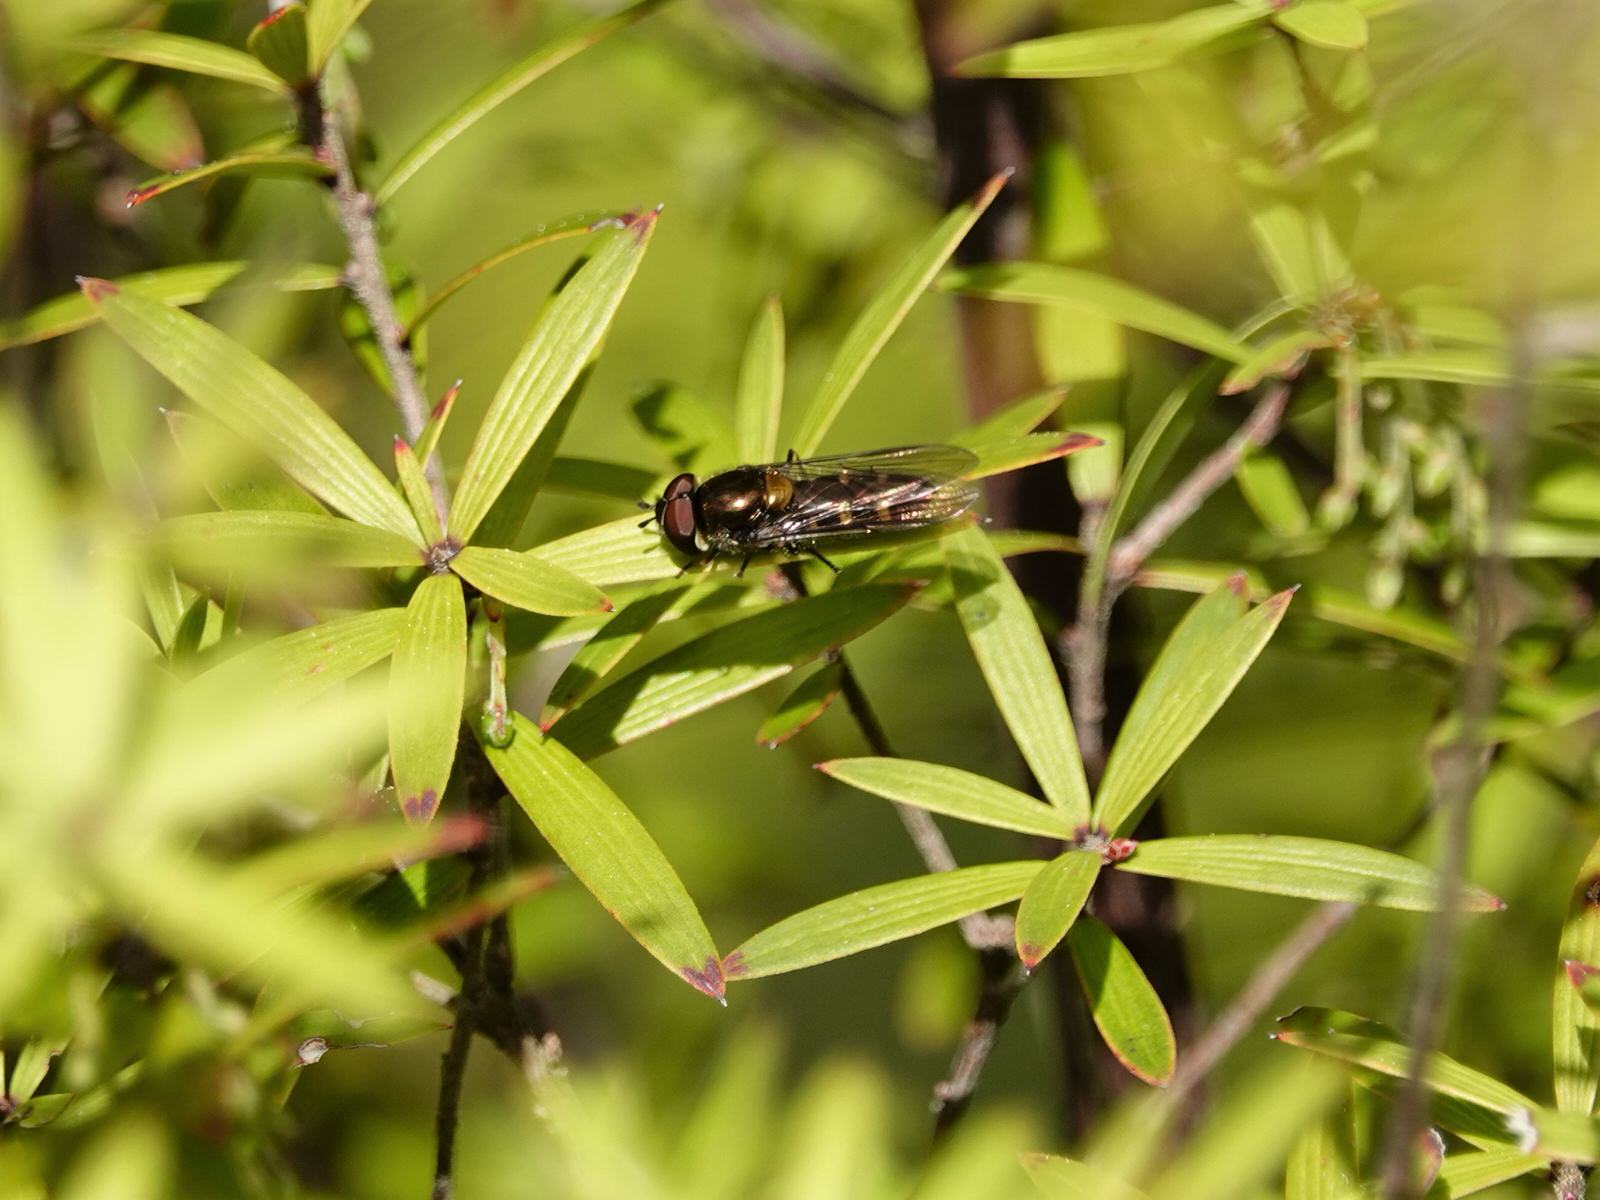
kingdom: Animalia
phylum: Arthropoda
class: Insecta
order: Diptera
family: Syrphidae
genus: Melangyna
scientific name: Melangyna novaezelandiae
